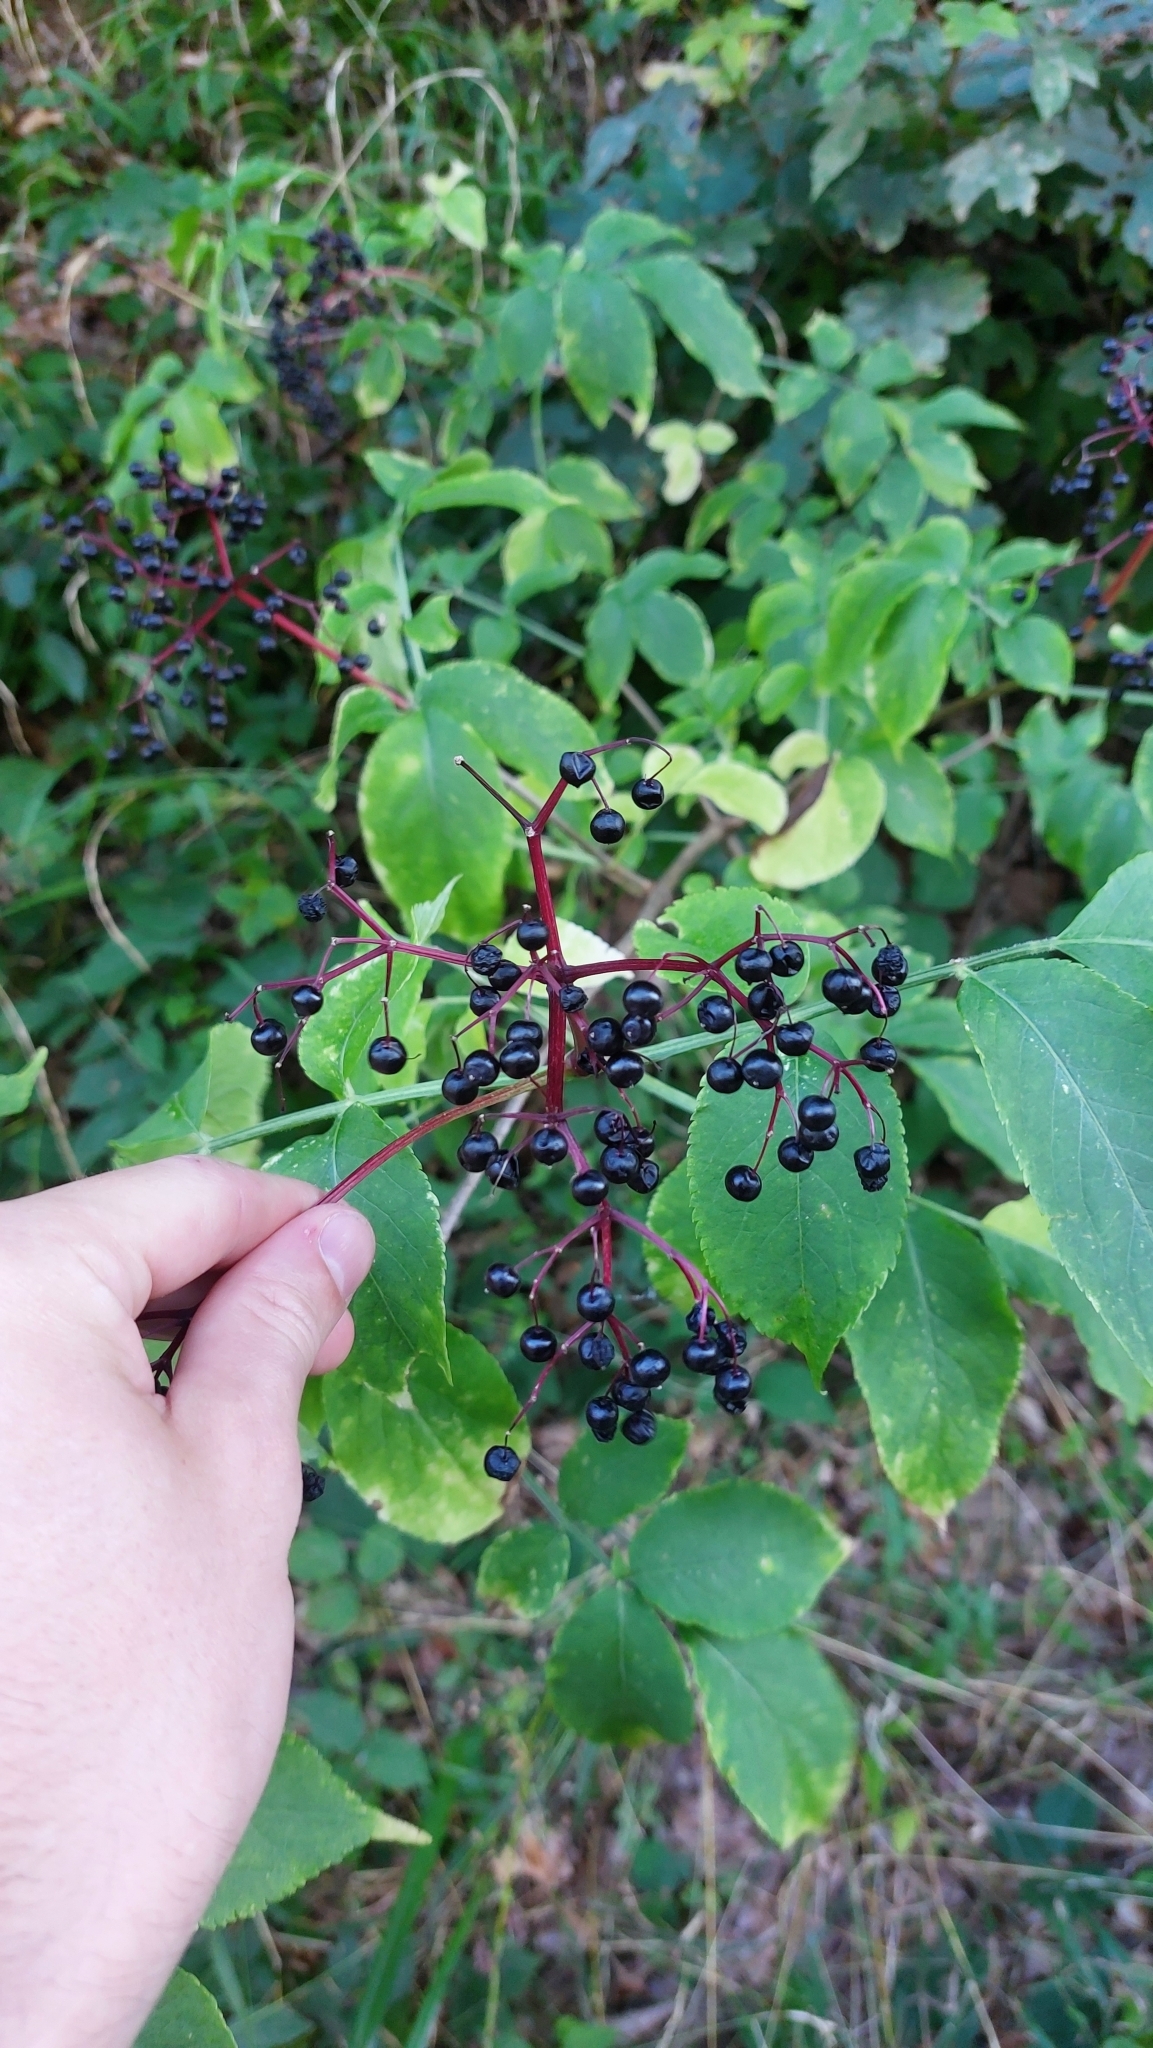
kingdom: Plantae
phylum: Tracheophyta
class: Magnoliopsida
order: Dipsacales
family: Viburnaceae
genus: Sambucus
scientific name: Sambucus nigra
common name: Elder
